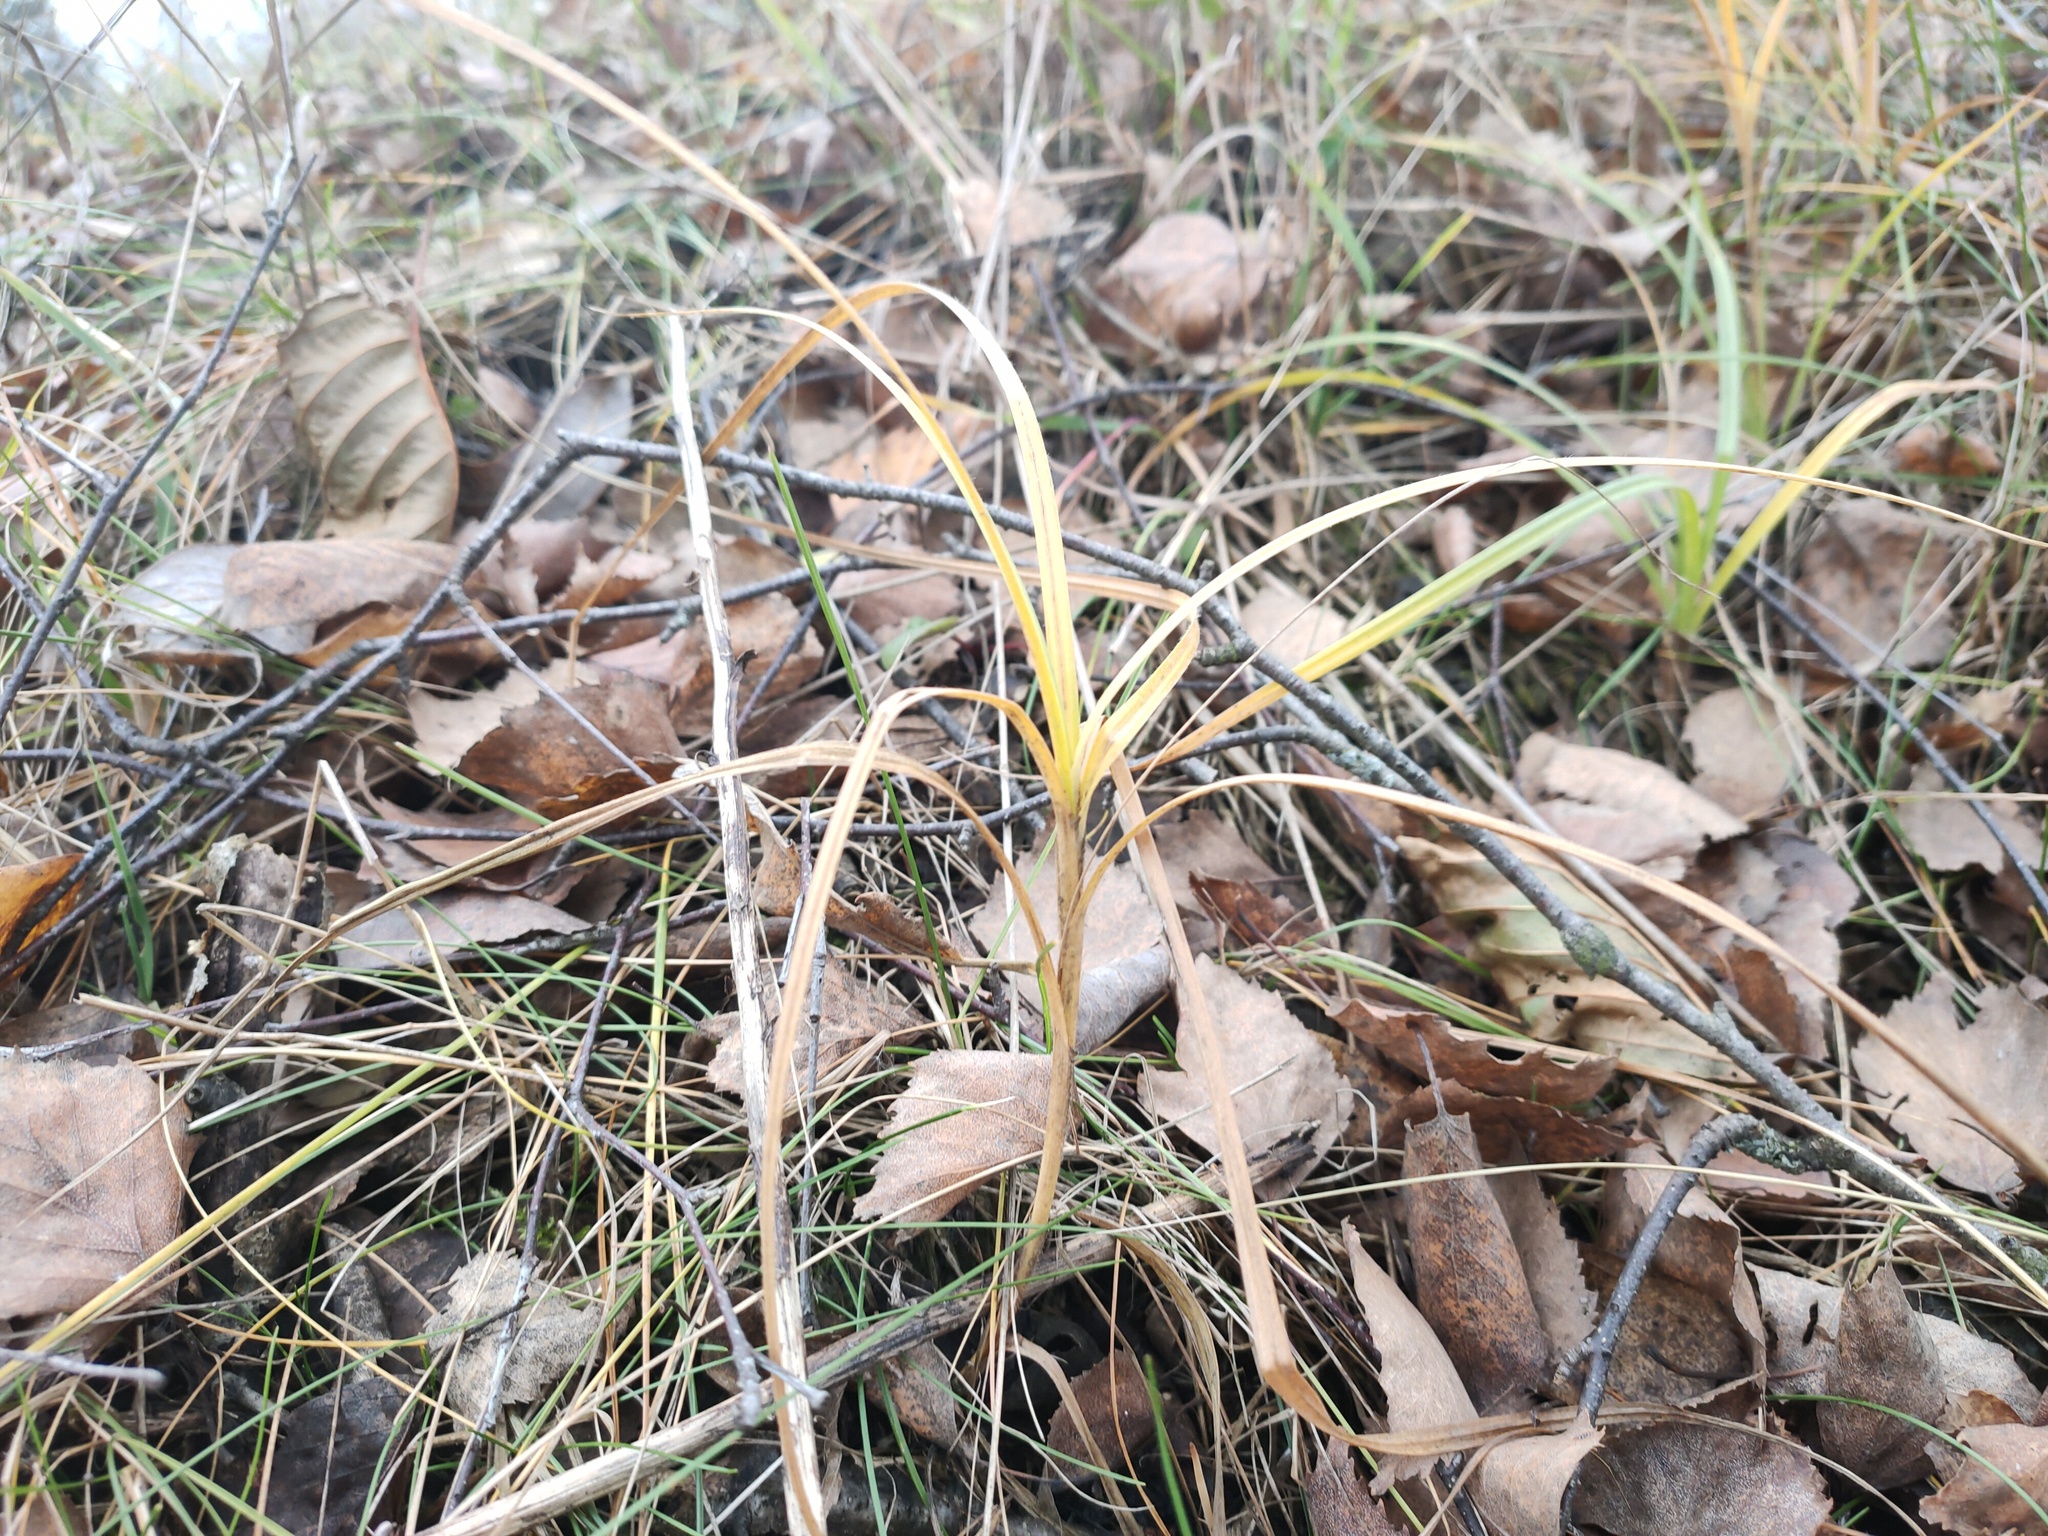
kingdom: Plantae
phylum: Tracheophyta
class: Liliopsida
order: Poales
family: Cyperaceae
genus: Carex
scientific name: Carex hirta
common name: Hairy sedge
